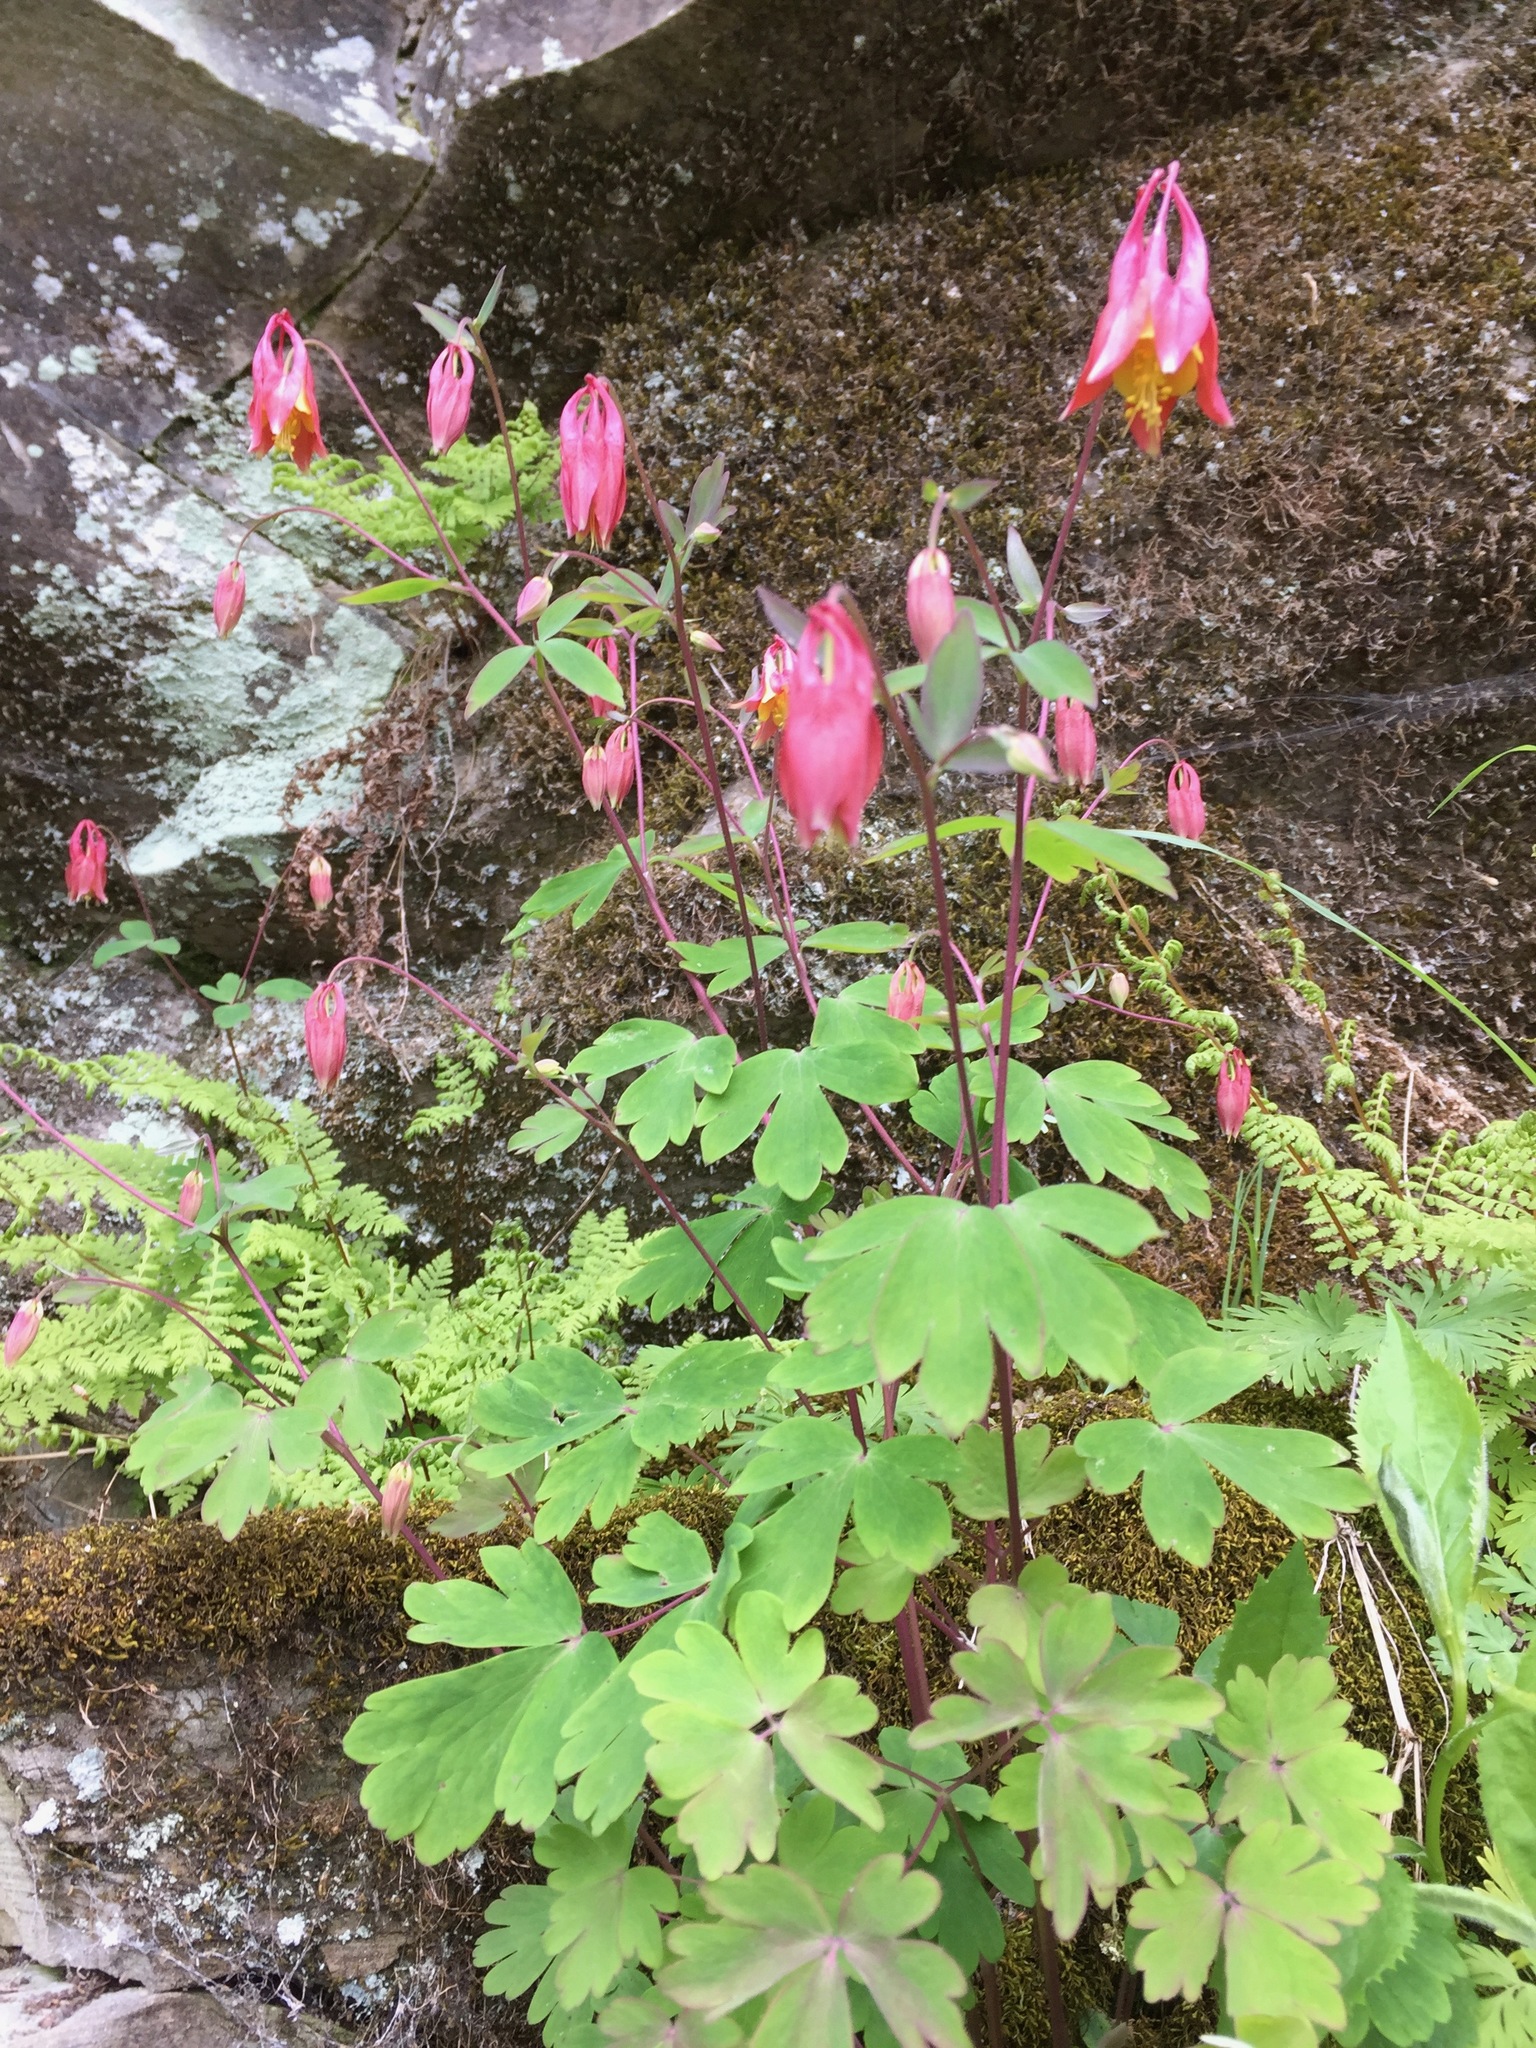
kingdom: Plantae
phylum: Tracheophyta
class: Magnoliopsida
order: Ranunculales
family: Ranunculaceae
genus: Aquilegia
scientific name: Aquilegia canadensis
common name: American columbine
